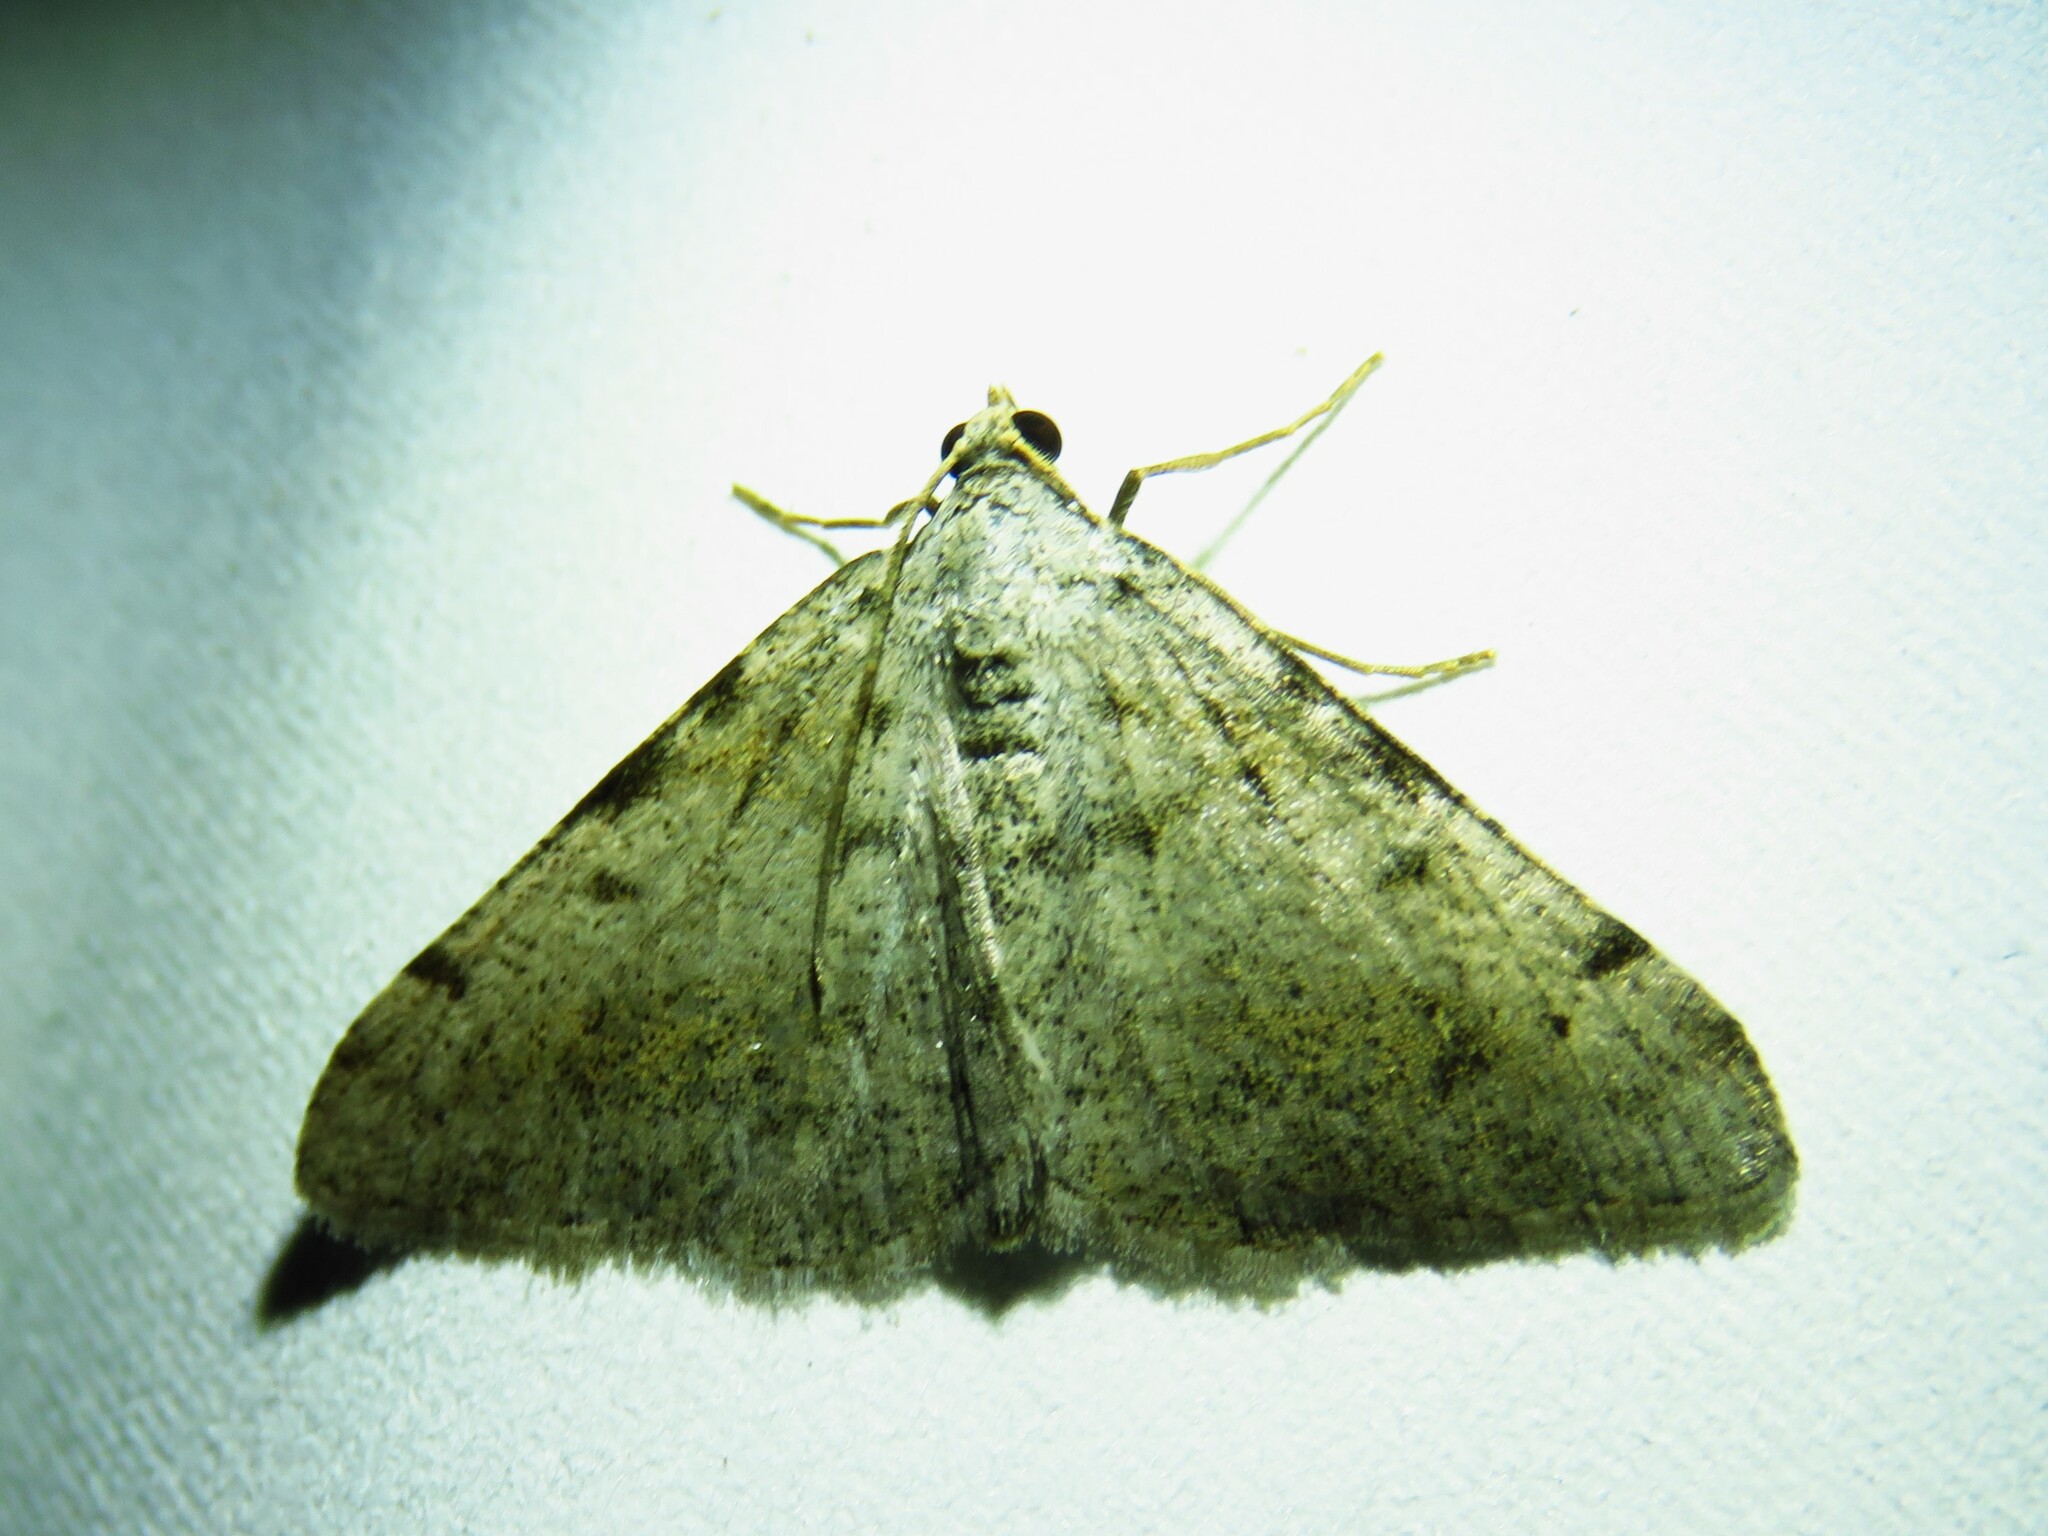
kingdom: Animalia
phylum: Arthropoda
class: Insecta
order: Lepidoptera
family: Geometridae
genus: Digrammia
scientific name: Digrammia pallidata
